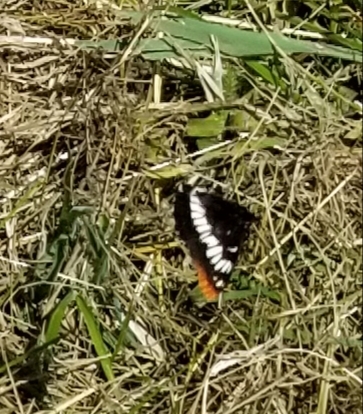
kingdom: Animalia
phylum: Arthropoda
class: Insecta
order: Lepidoptera
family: Nymphalidae
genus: Limenitis
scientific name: Limenitis lorquini
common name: Lorquin's admiral
